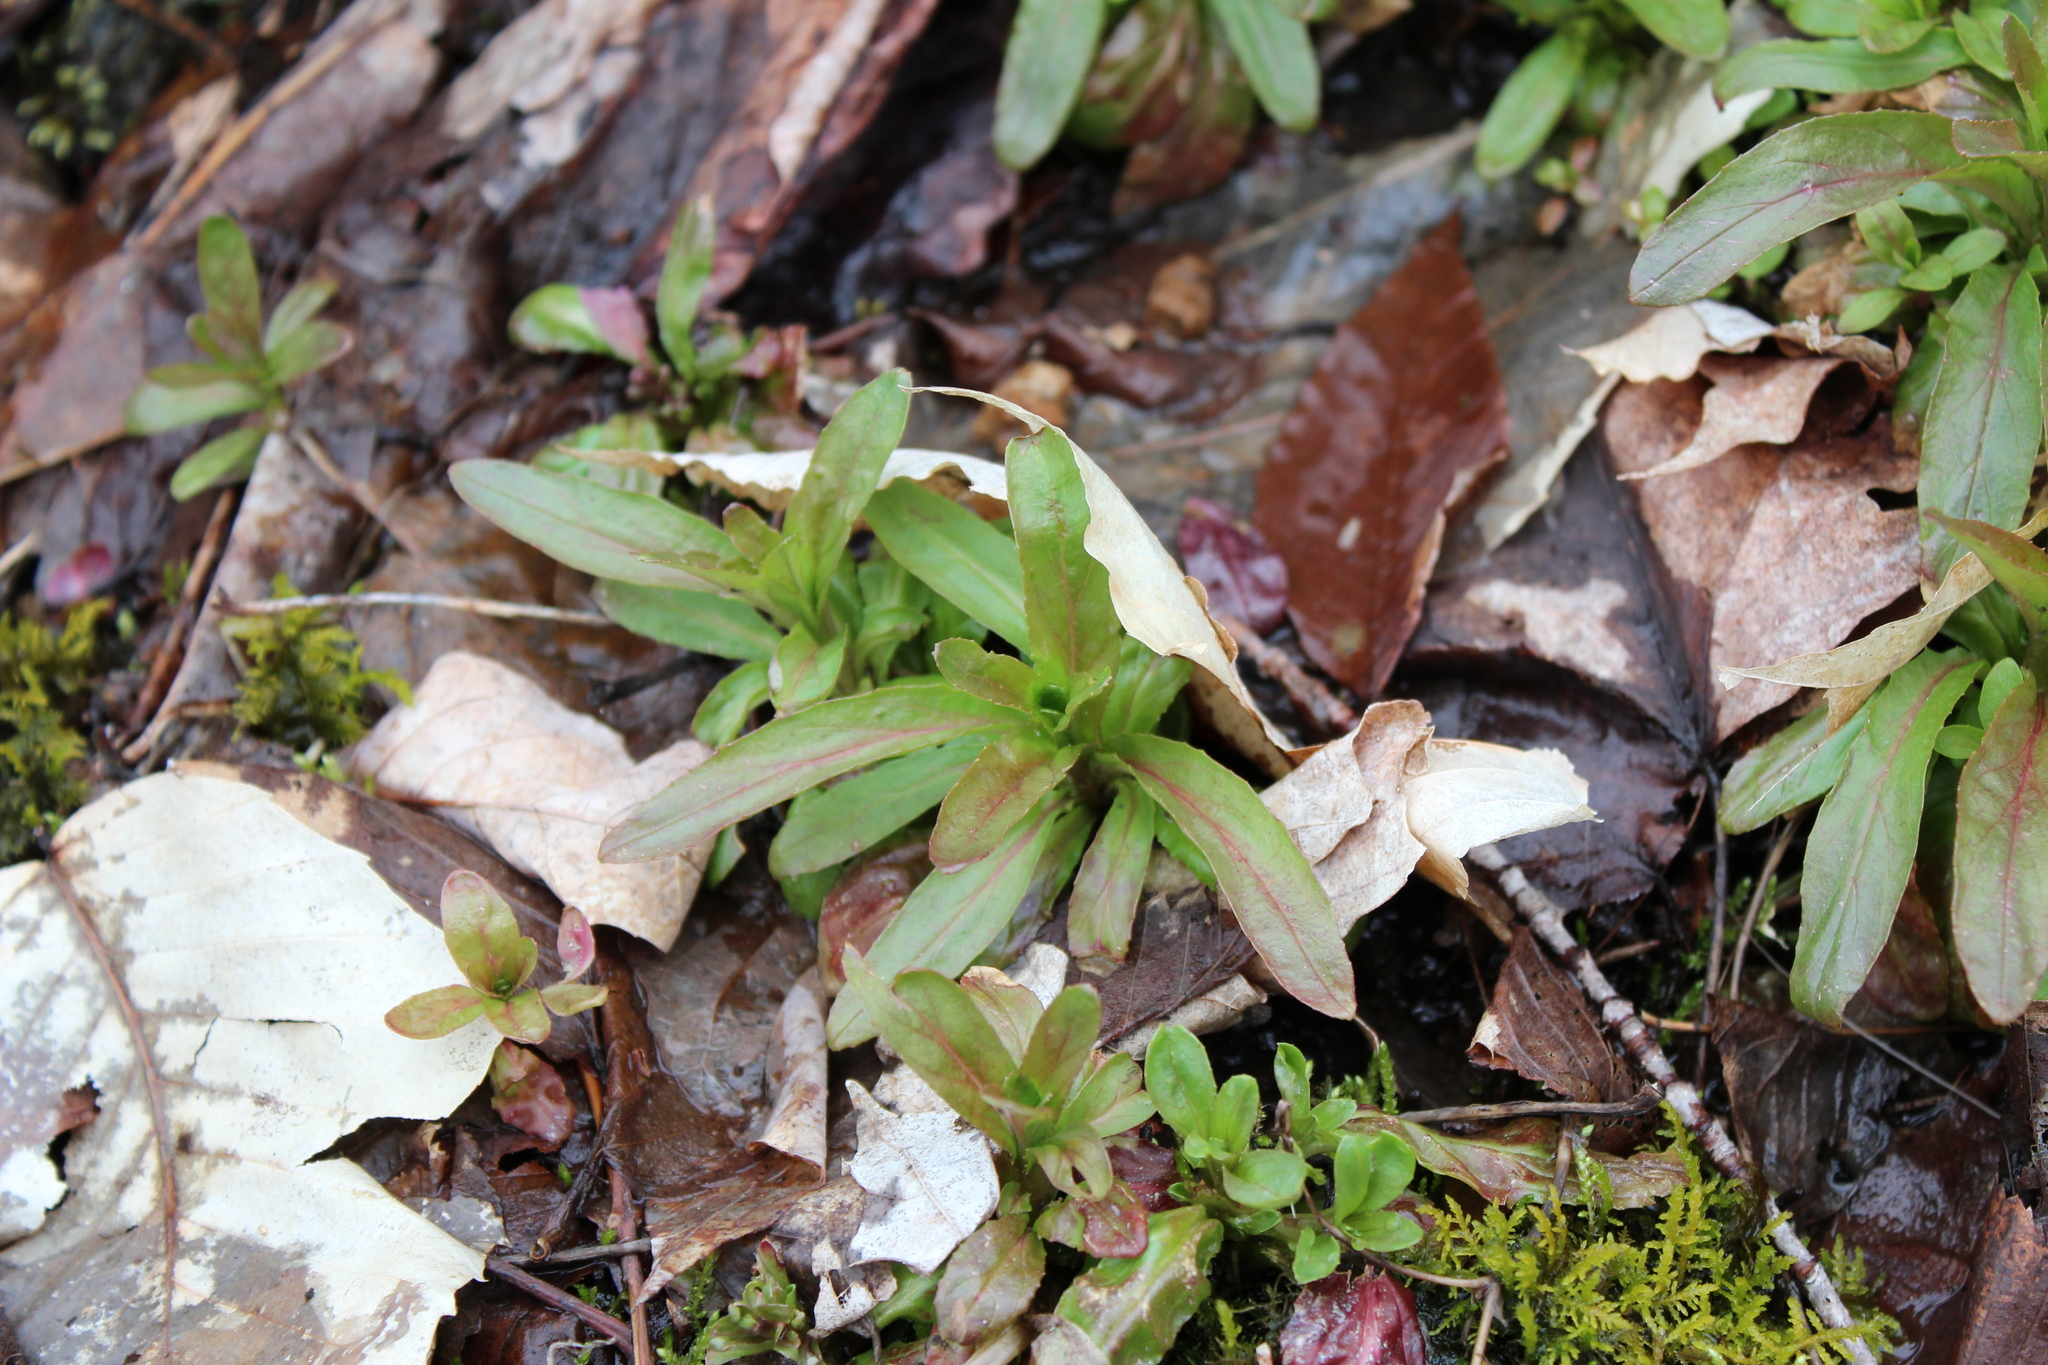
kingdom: Plantae
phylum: Tracheophyta
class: Magnoliopsida
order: Saxifragales
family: Saxifragaceae
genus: Micranthes
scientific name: Micranthes pensylvanica
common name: Marsh saxifrage
